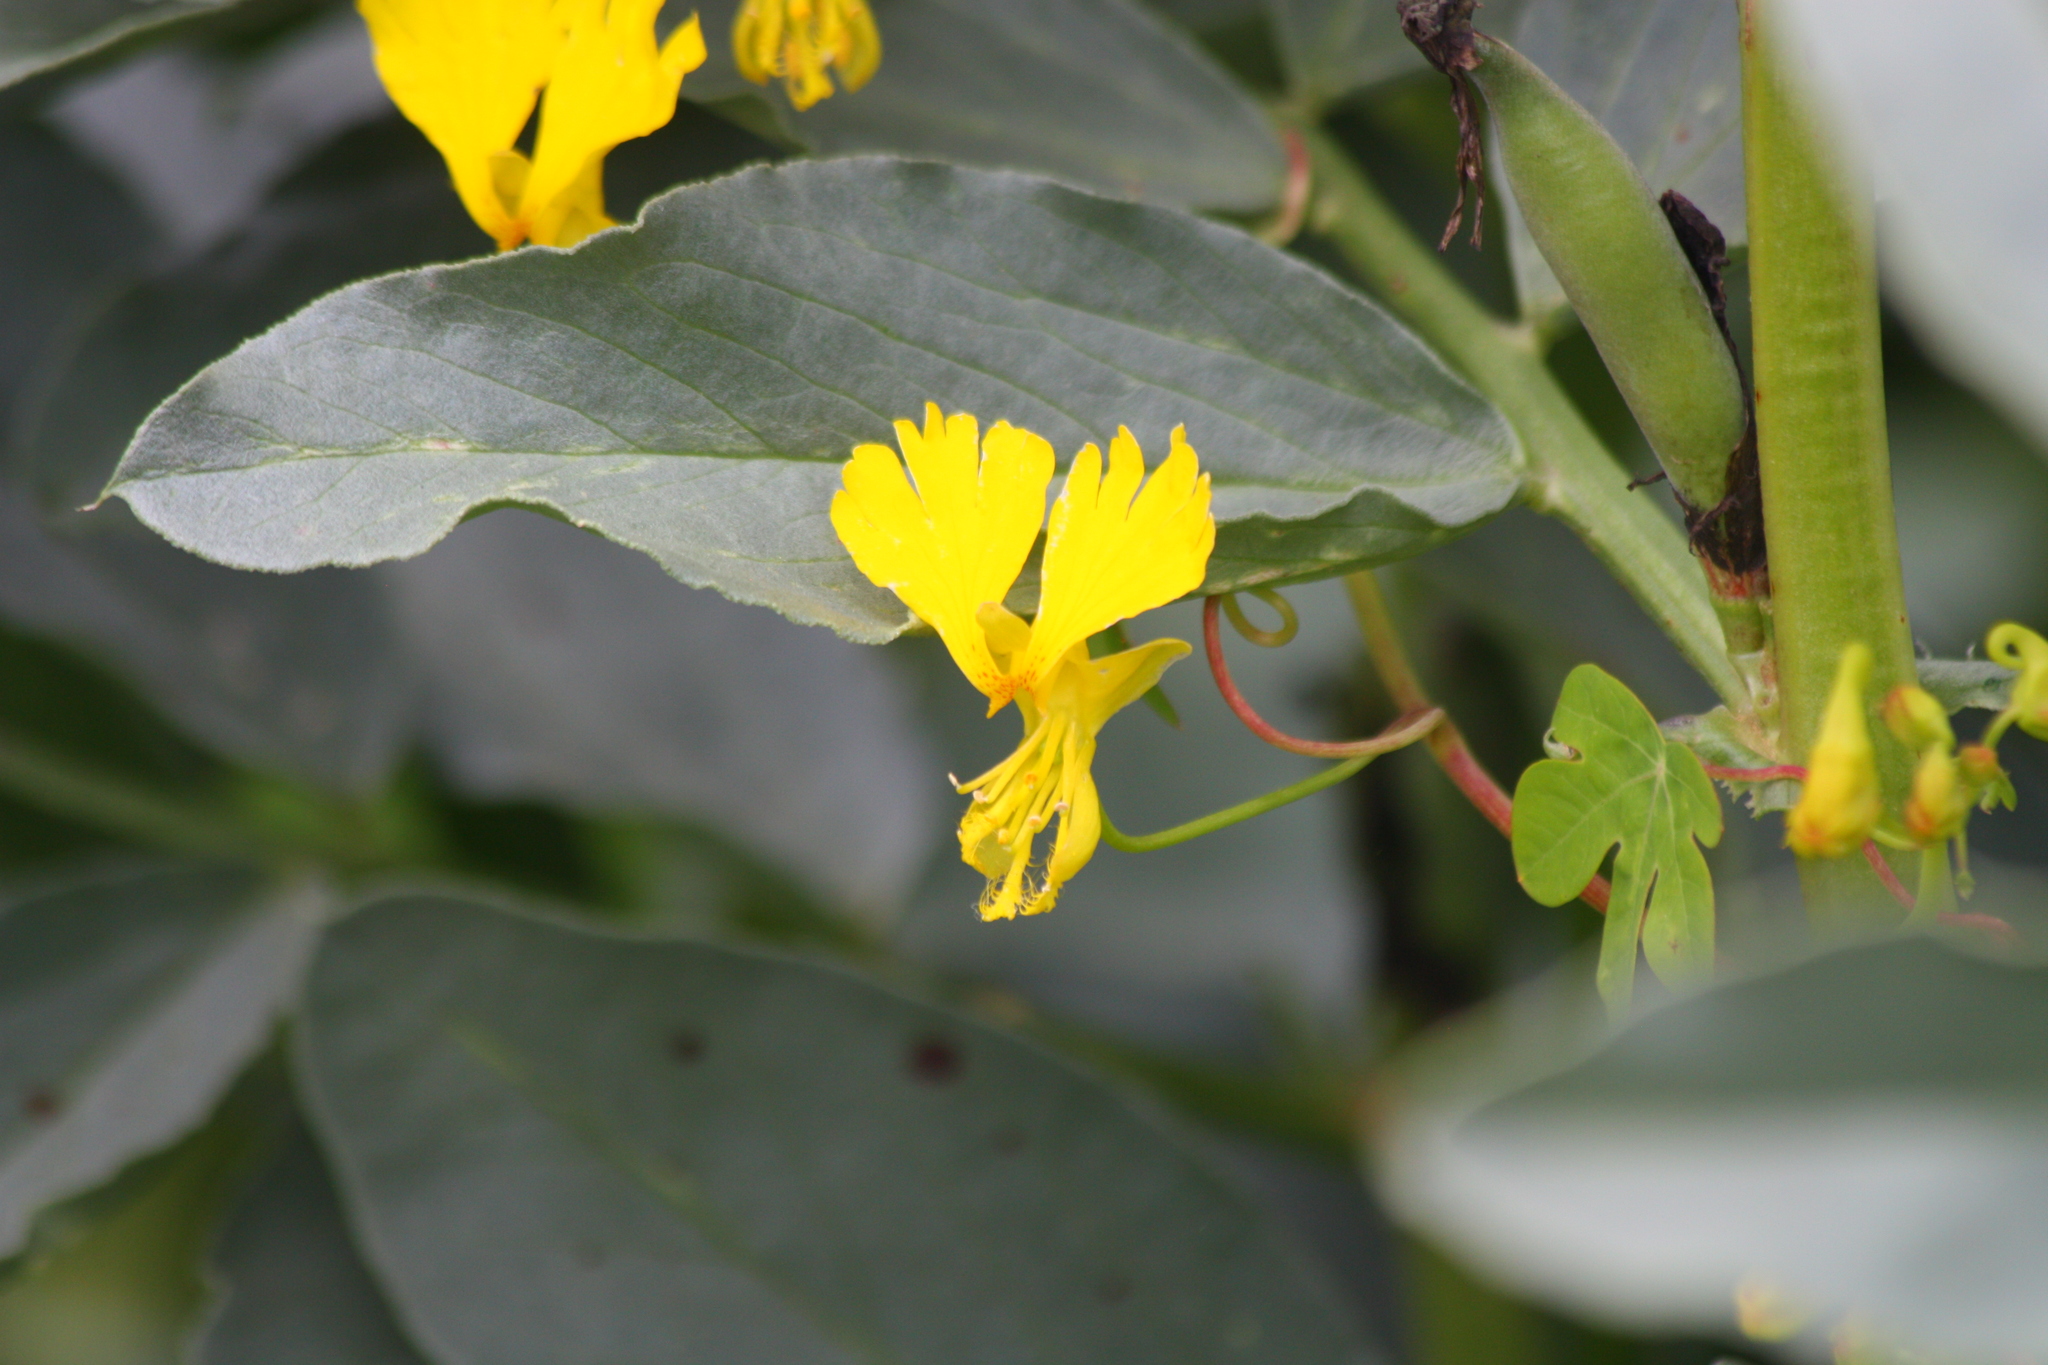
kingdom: Plantae
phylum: Tracheophyta
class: Magnoliopsida
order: Brassicales
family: Tropaeolaceae
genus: Tropaeolum
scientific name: Tropaeolum peregrinum
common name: Canary-creeper
